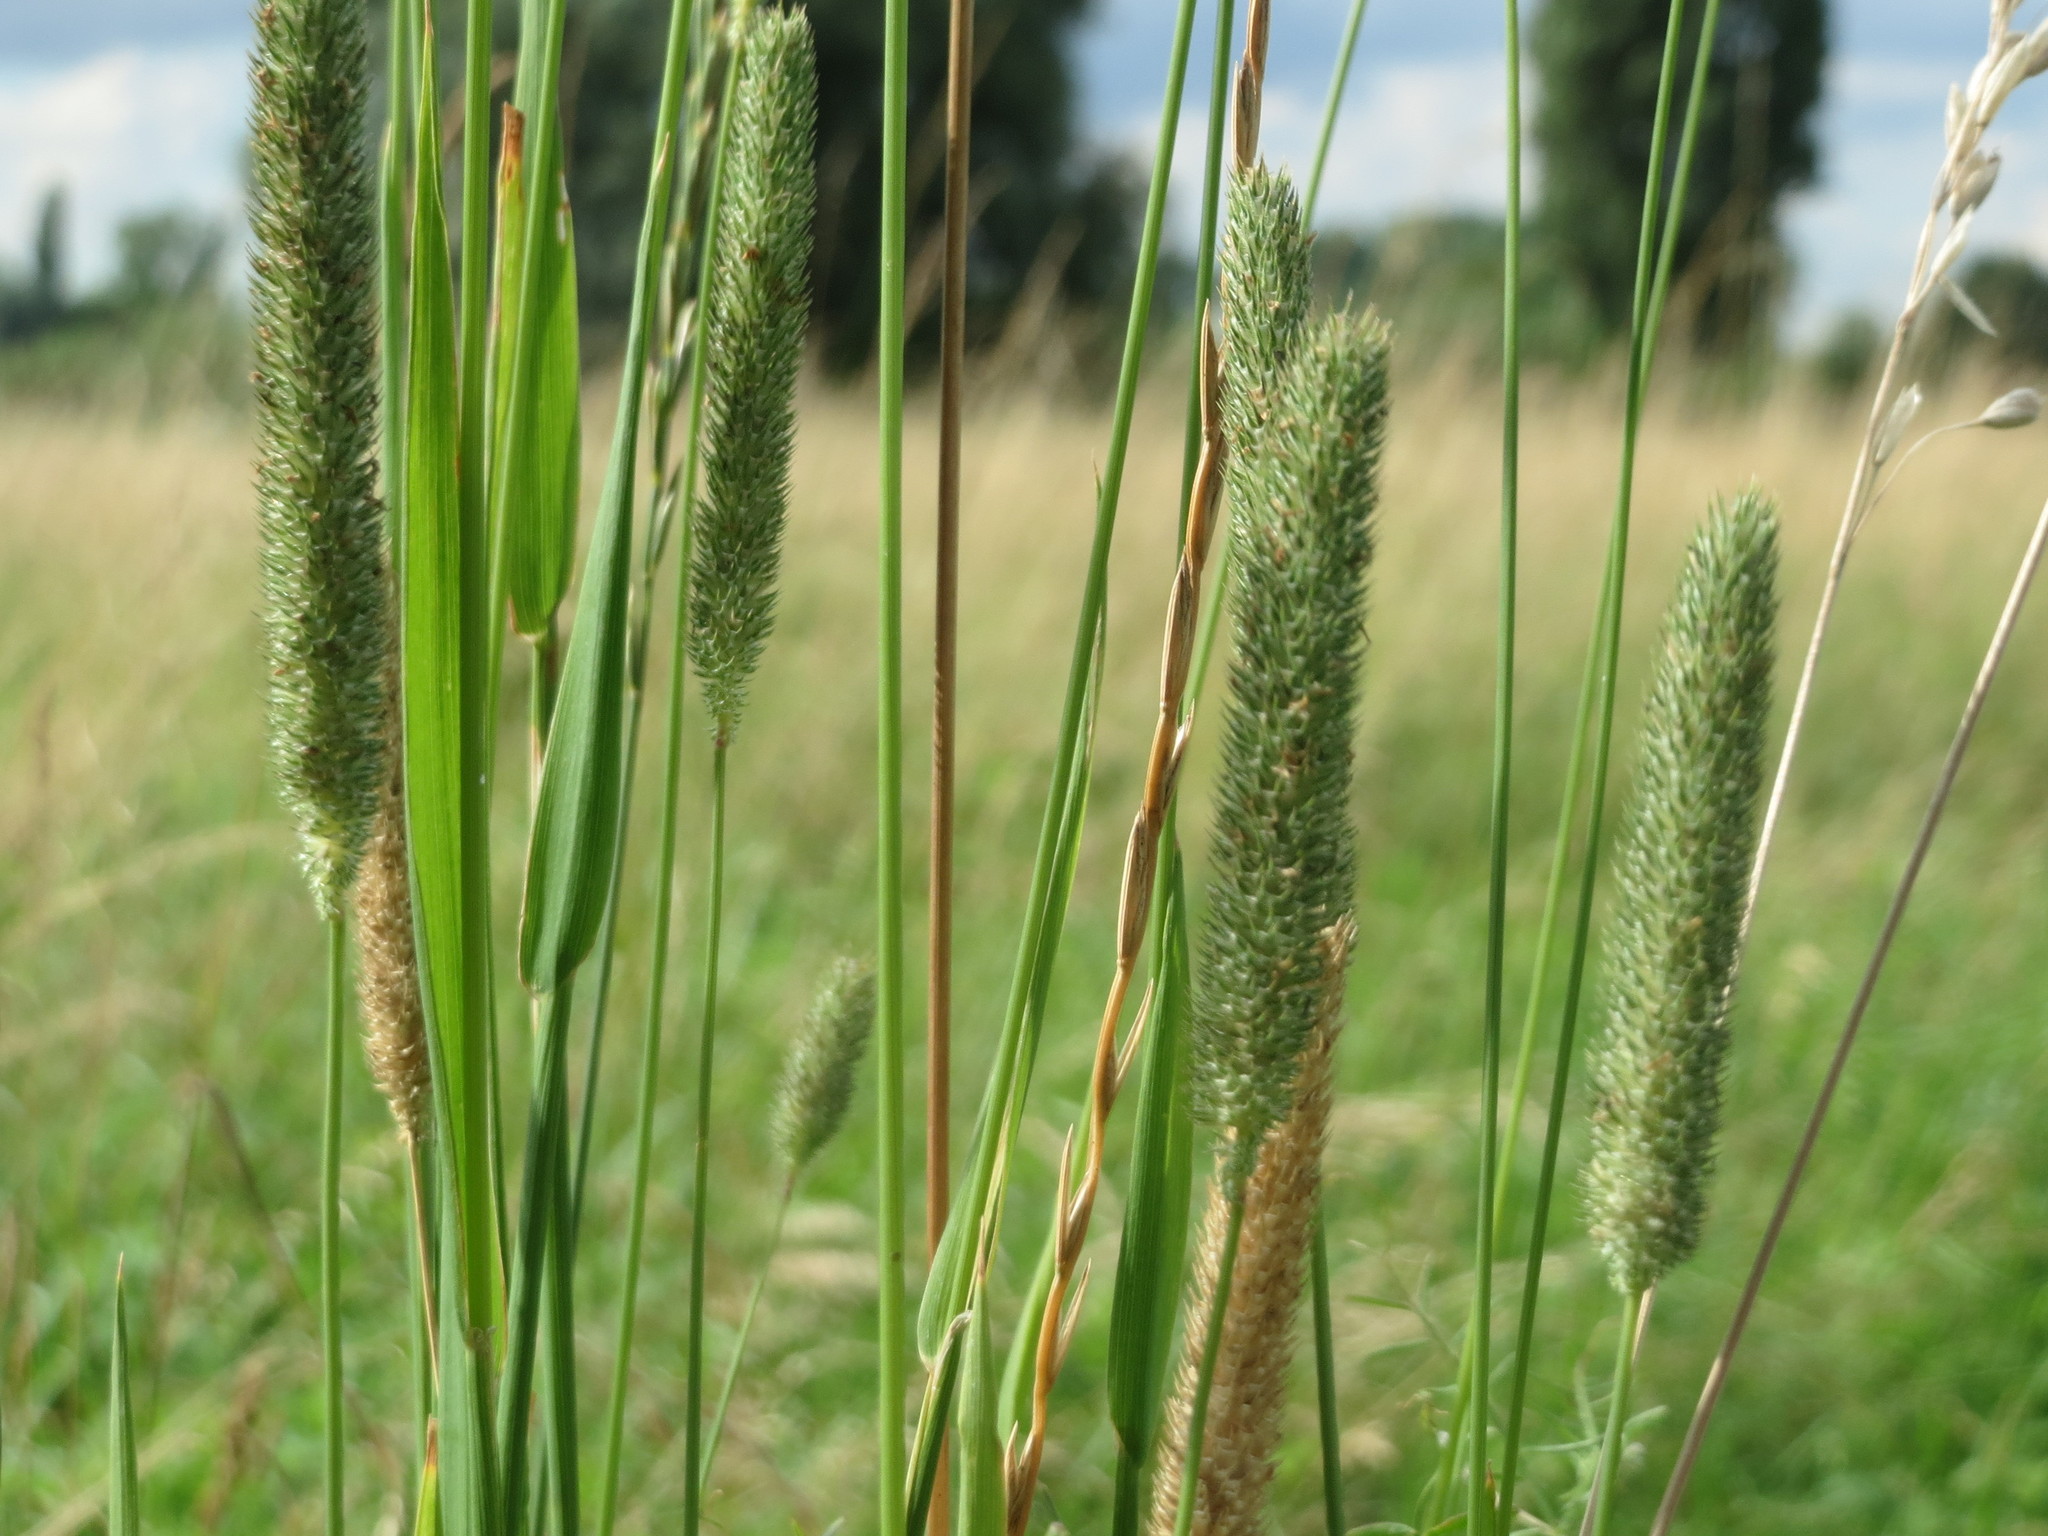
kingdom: Plantae
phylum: Tracheophyta
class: Liliopsida
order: Poales
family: Poaceae
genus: Phleum
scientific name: Phleum pratense
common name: Timothy grass
